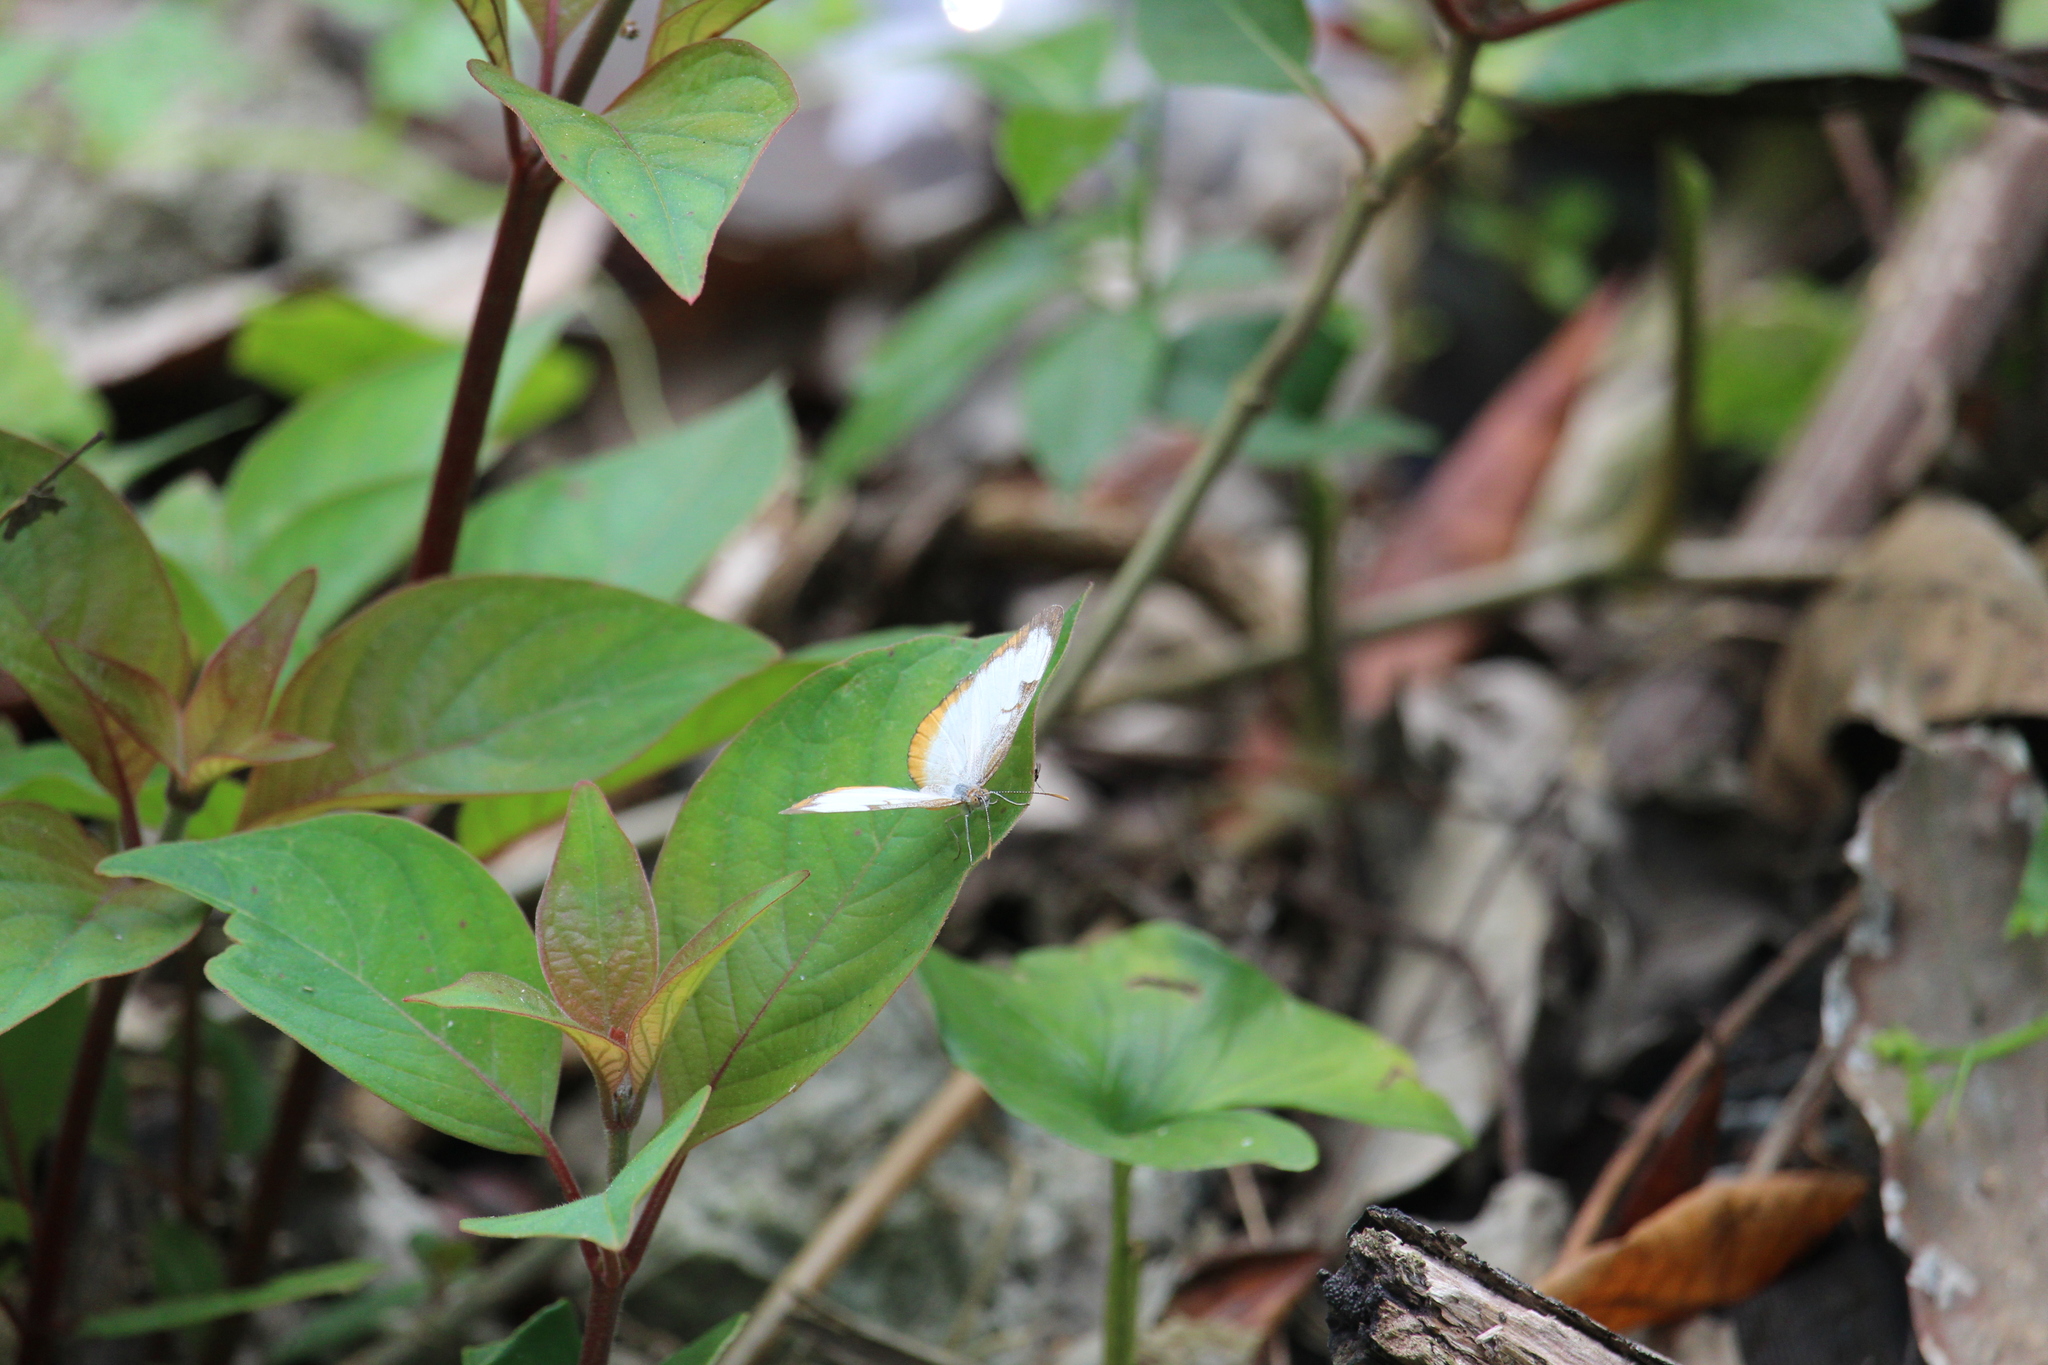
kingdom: Animalia
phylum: Arthropoda
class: Insecta
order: Lepidoptera
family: Nymphalidae
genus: Mestra
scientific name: Mestra amymone
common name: Common mestra
